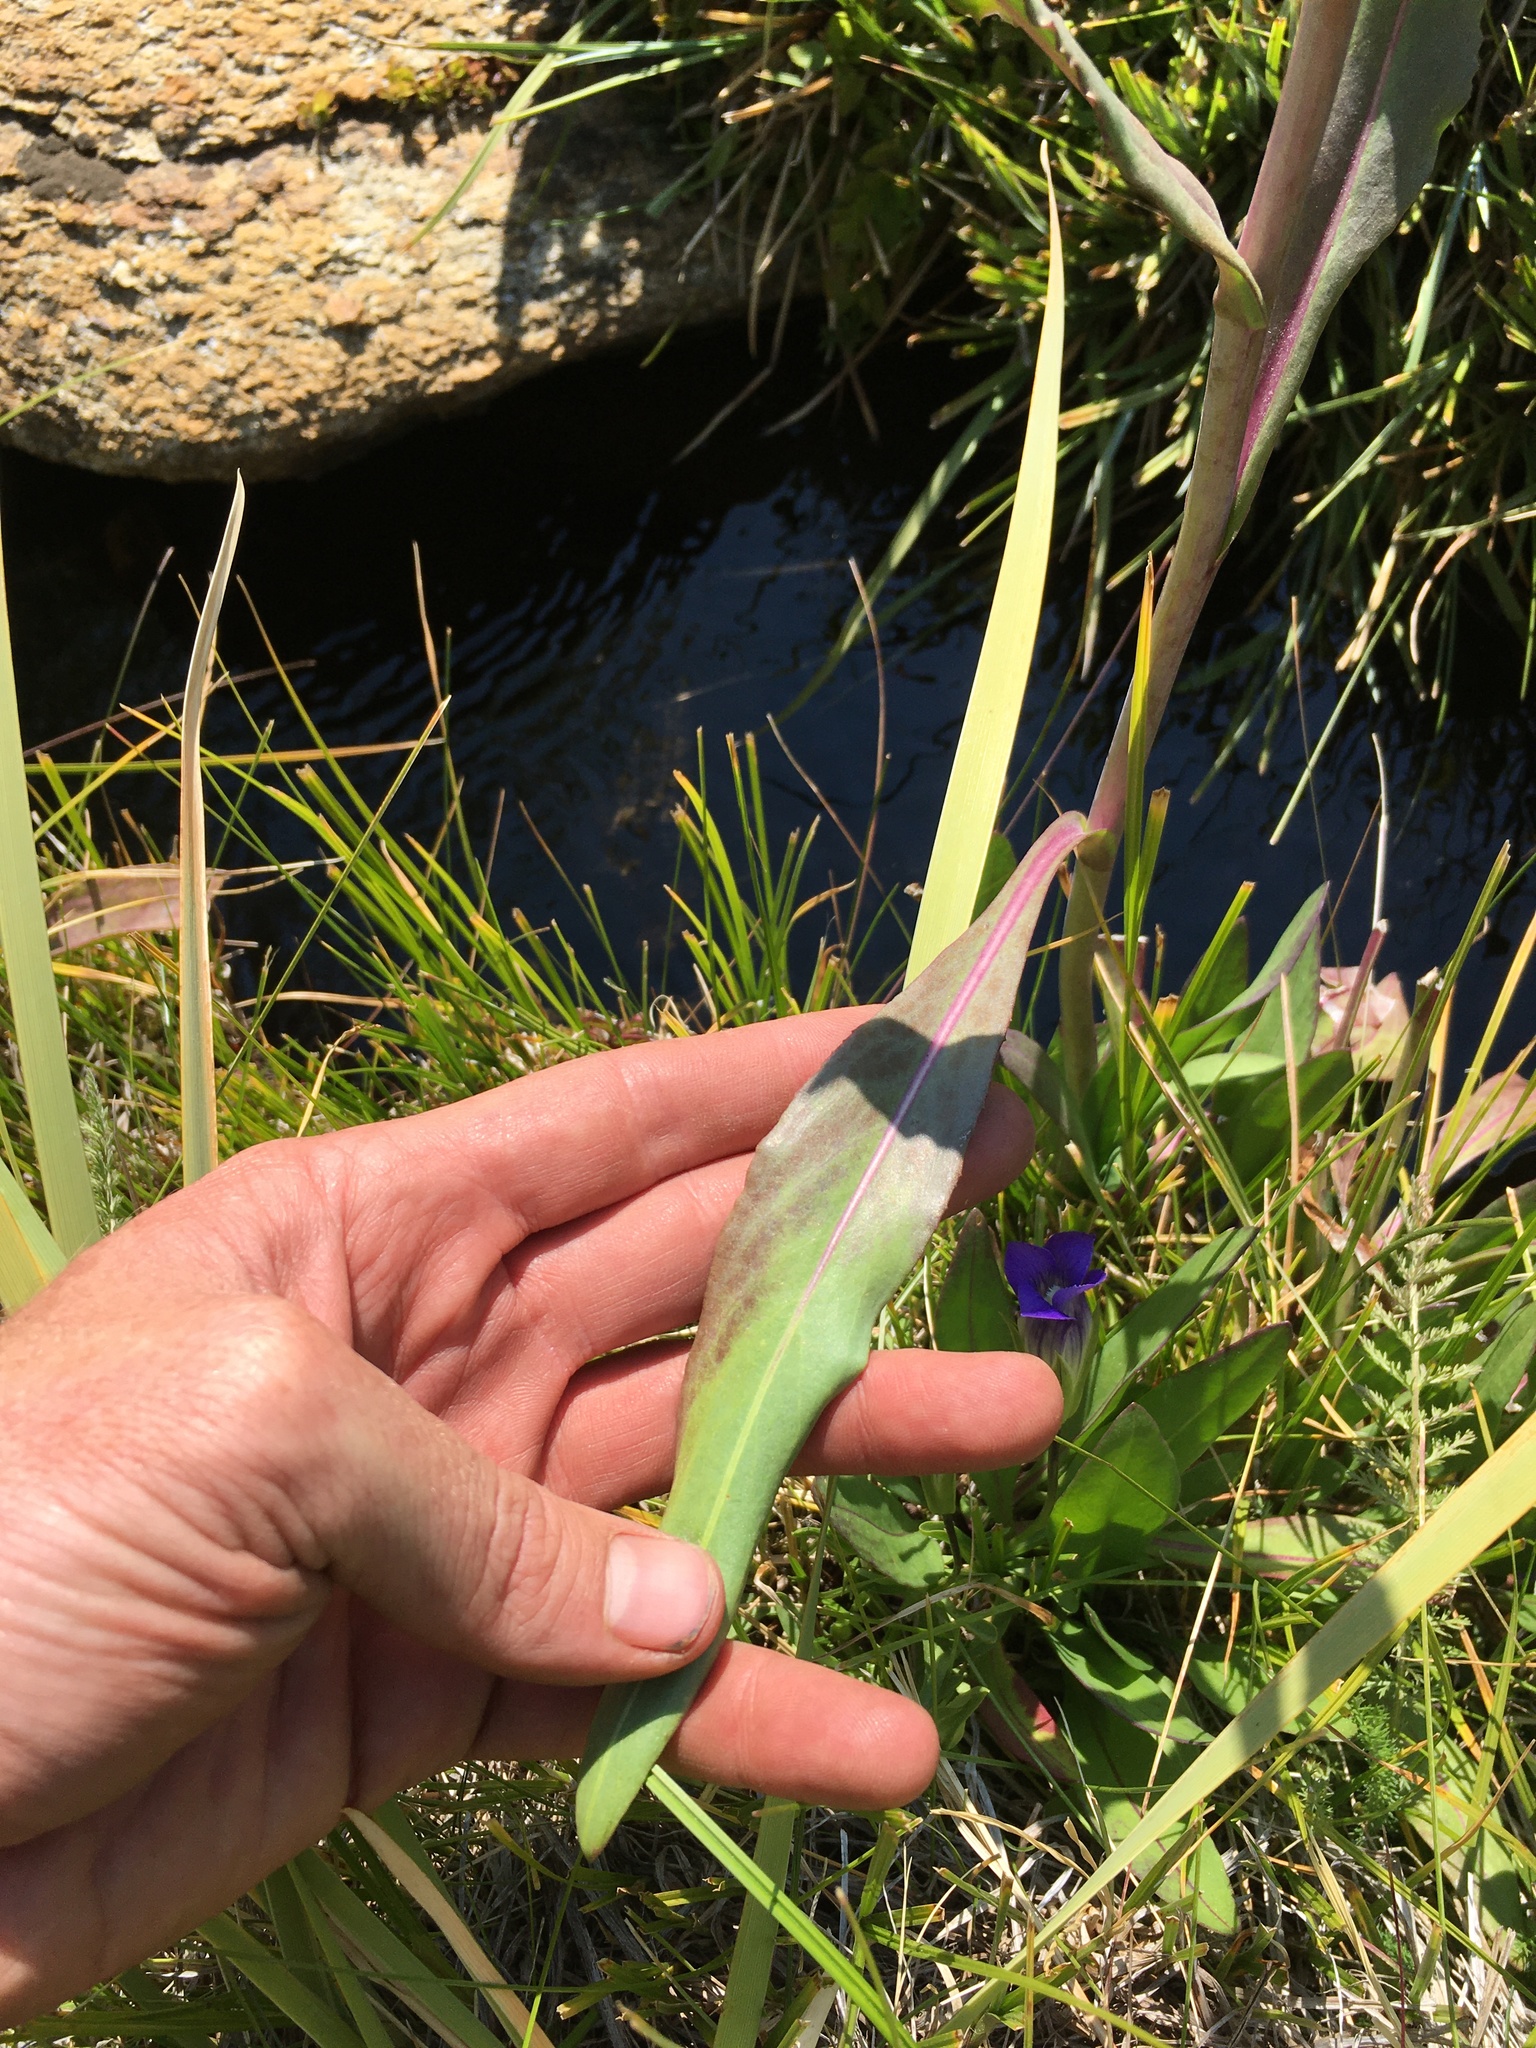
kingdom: Plantae
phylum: Tracheophyta
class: Magnoliopsida
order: Asterales
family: Asteraceae
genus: Senecio
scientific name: Senecio hydrophilus
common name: Water ragwort
